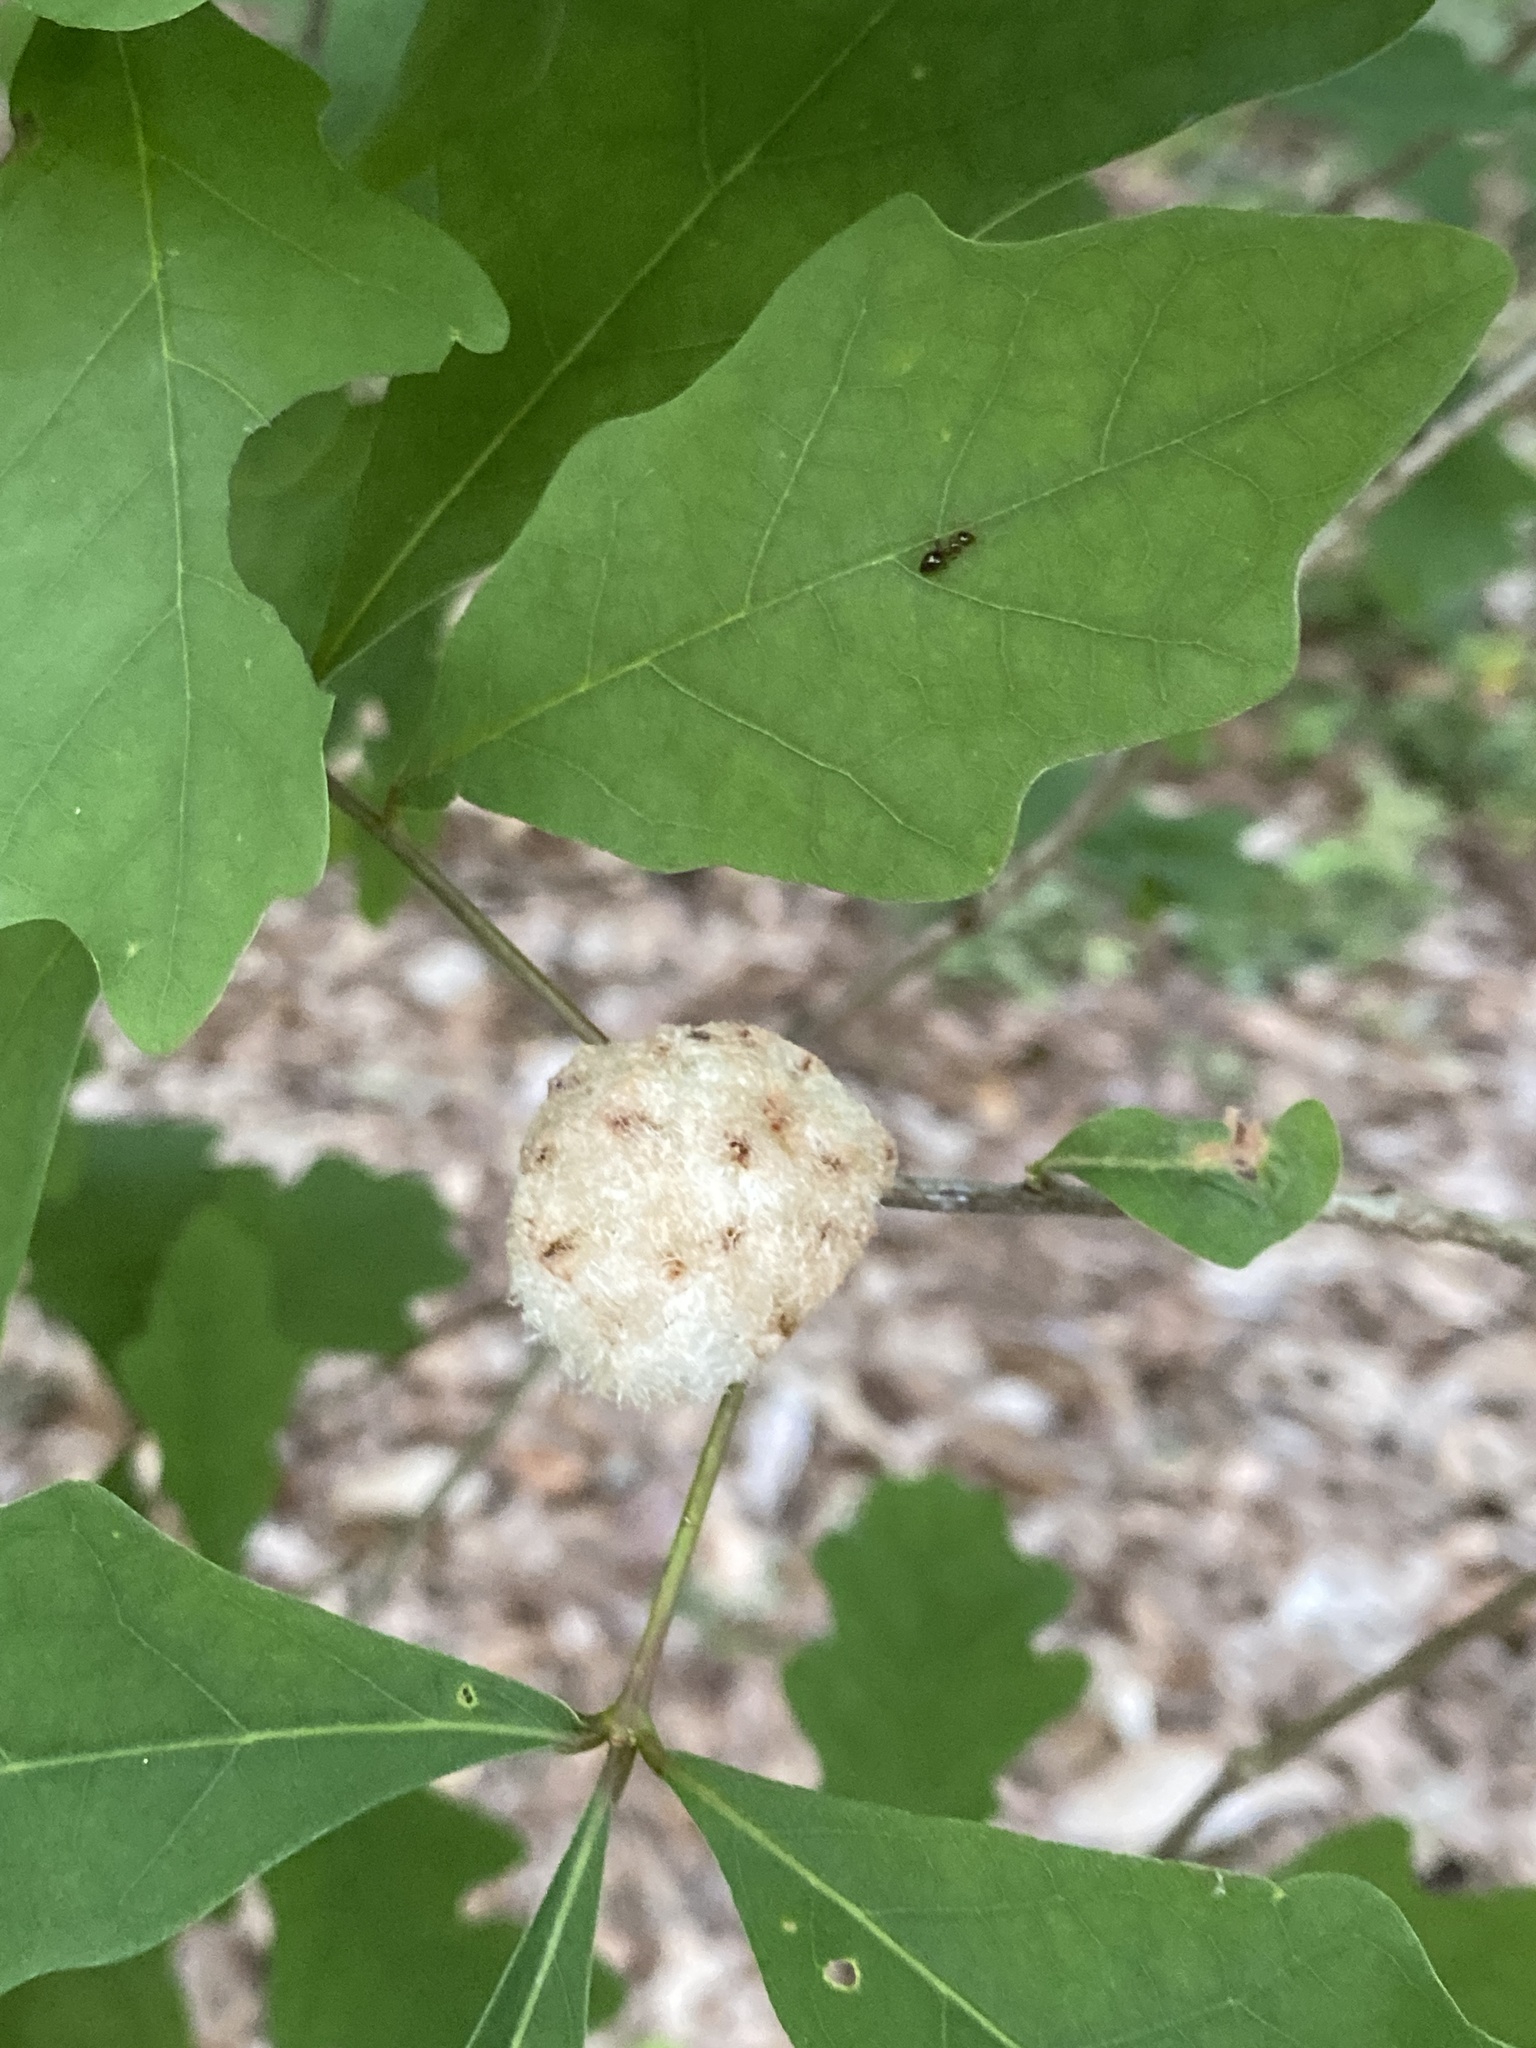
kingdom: Animalia
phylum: Arthropoda
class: Insecta
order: Hymenoptera
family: Cynipidae
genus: Callirhytis
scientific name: Callirhytis
